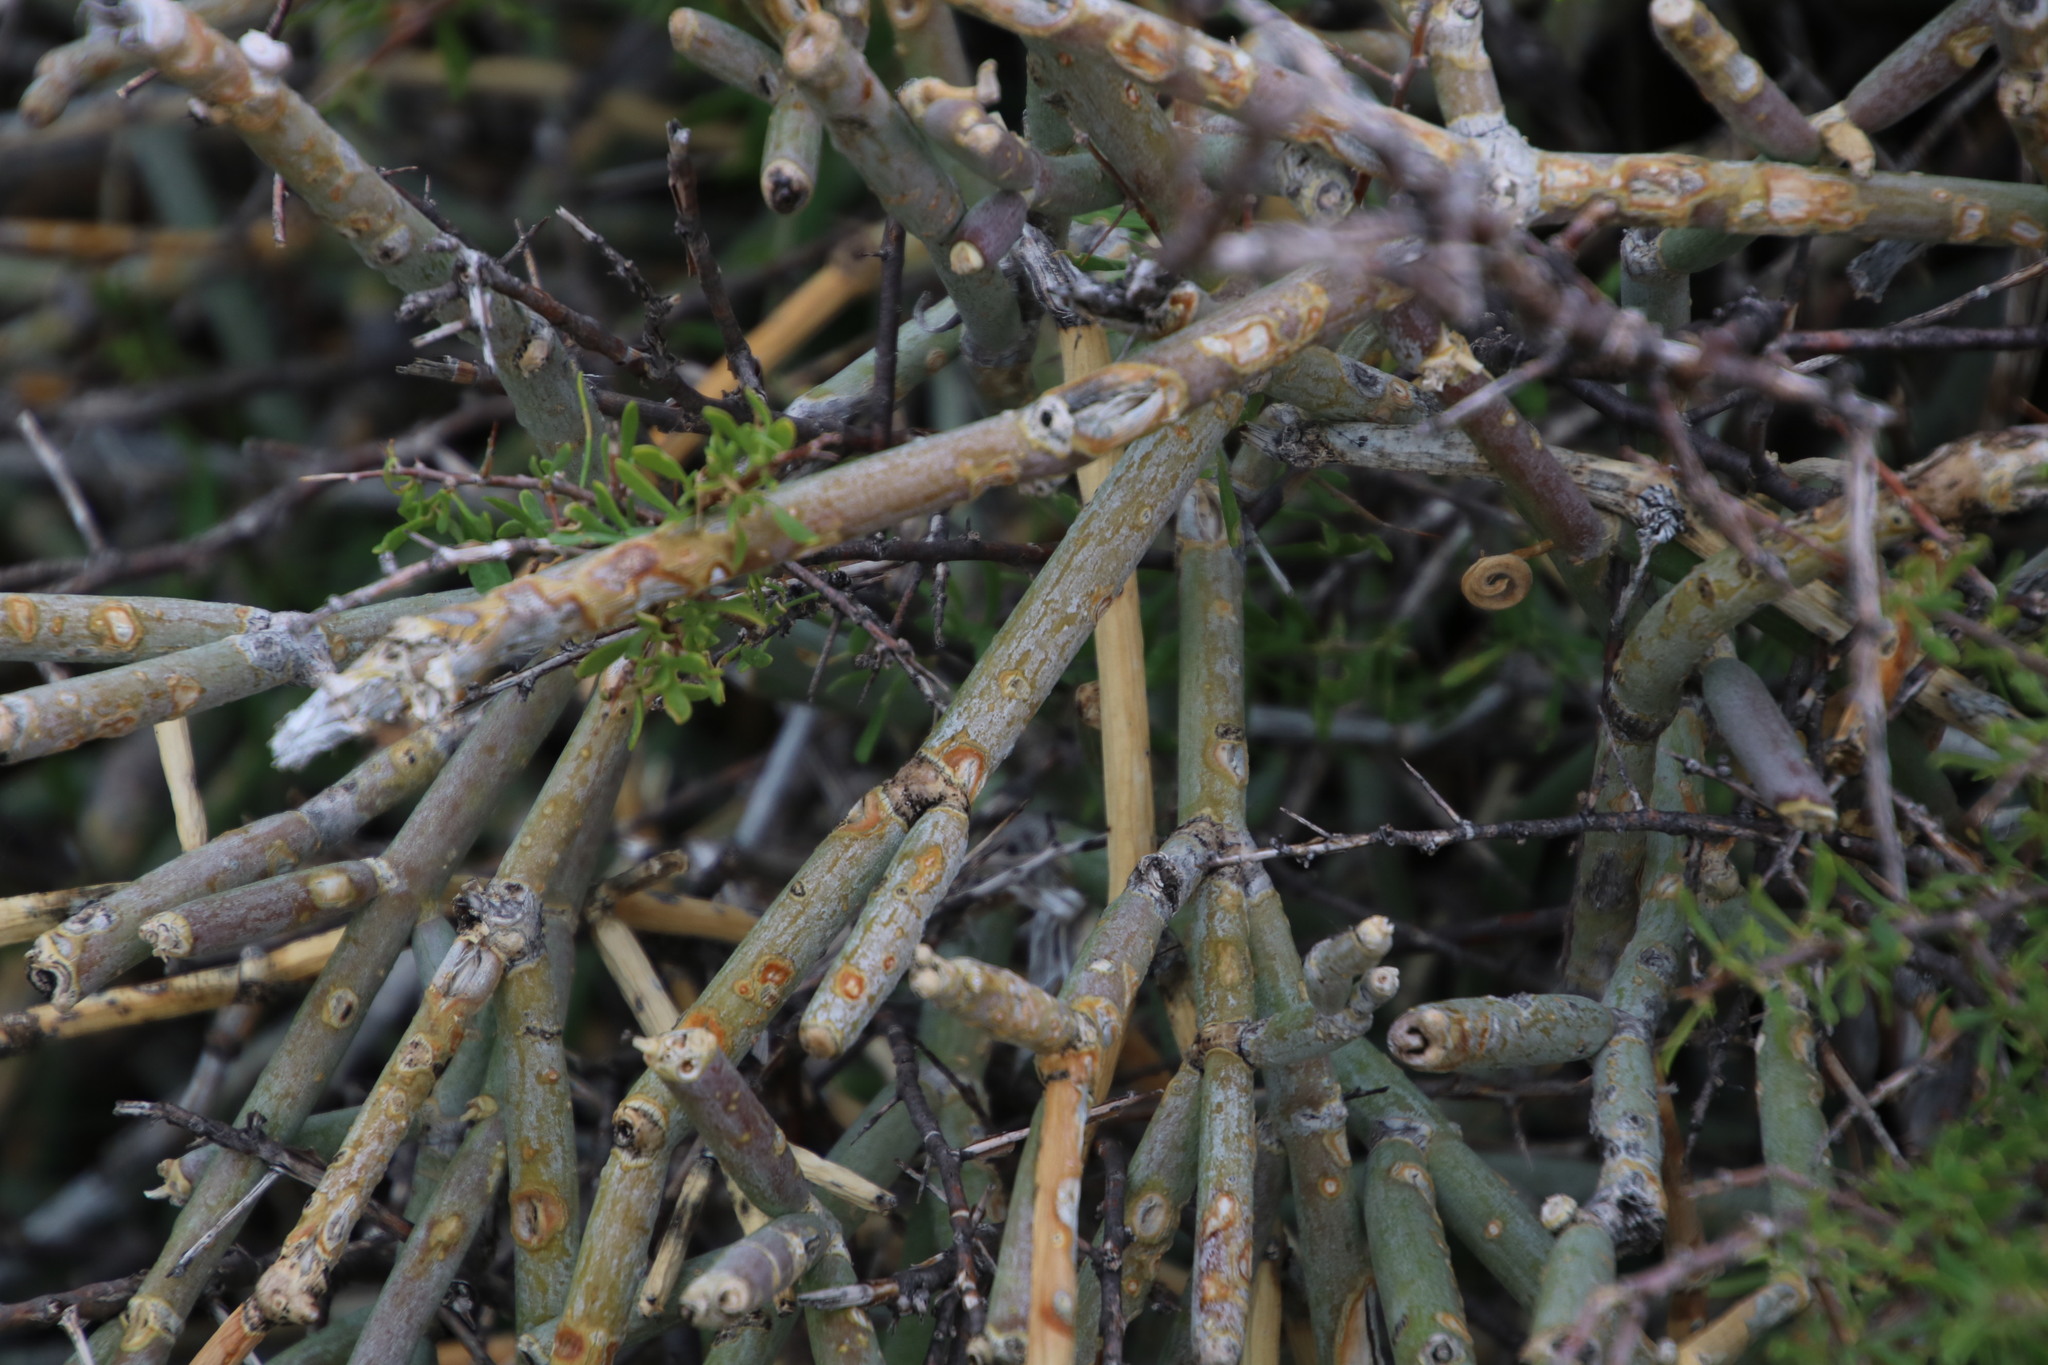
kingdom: Plantae
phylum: Tracheophyta
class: Magnoliopsida
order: Gentianales
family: Apocynaceae
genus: Cynanchum
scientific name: Cynanchum viminale
